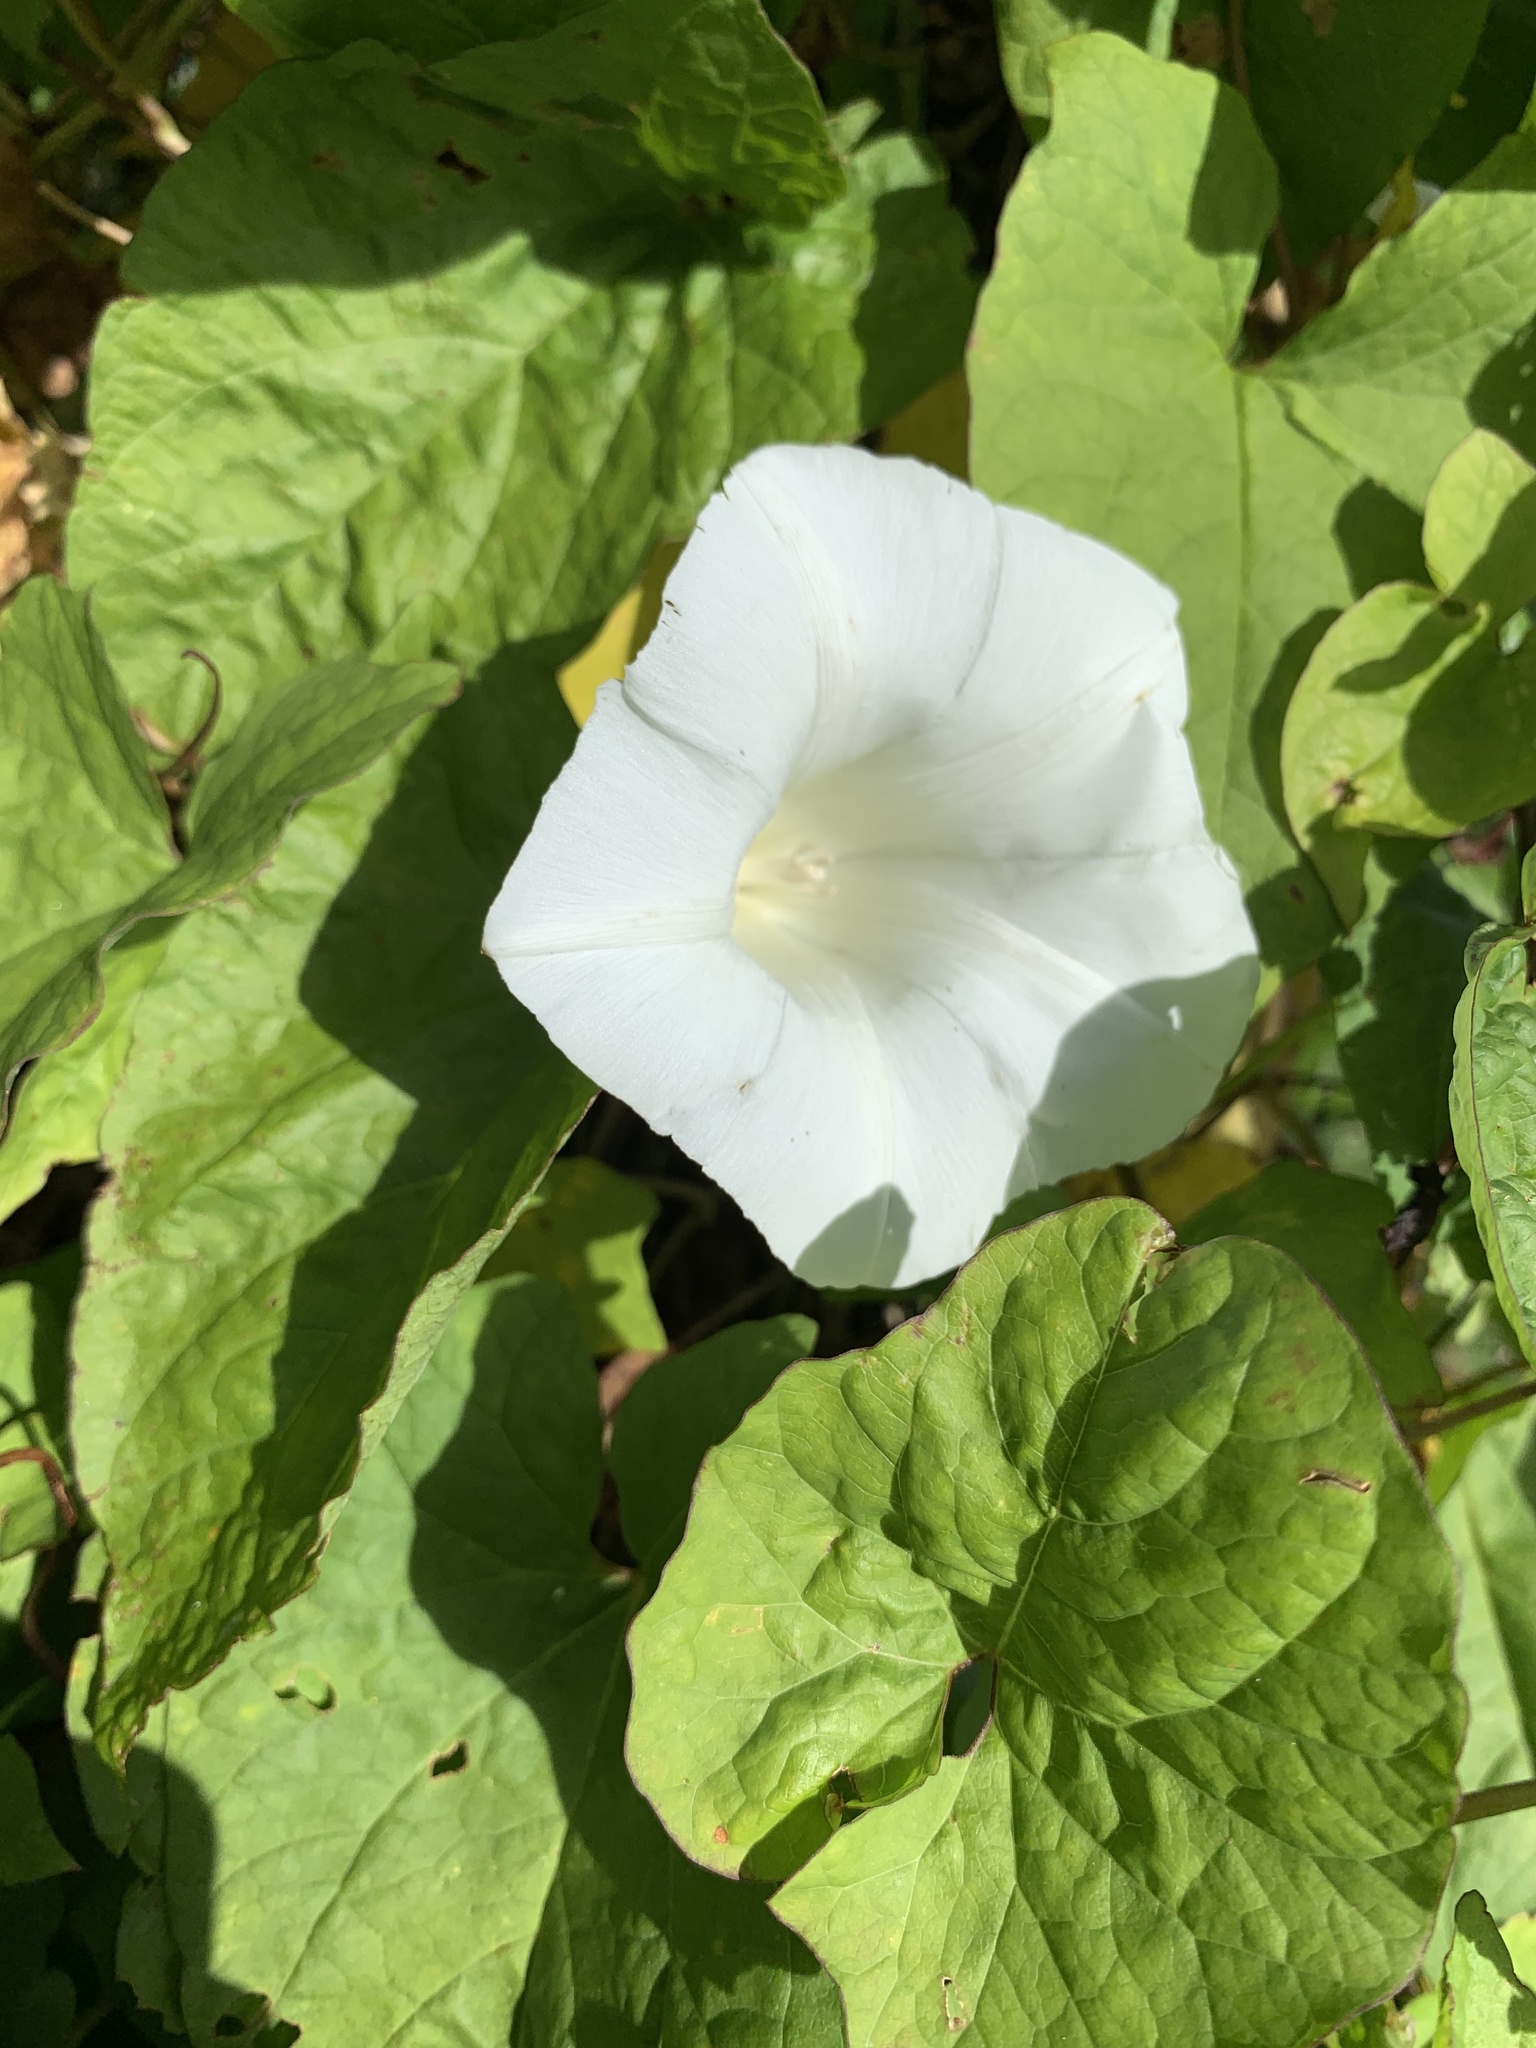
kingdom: Plantae
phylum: Tracheophyta
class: Magnoliopsida
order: Solanales
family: Convolvulaceae
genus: Calystegia
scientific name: Calystegia silvatica
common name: Large bindweed
